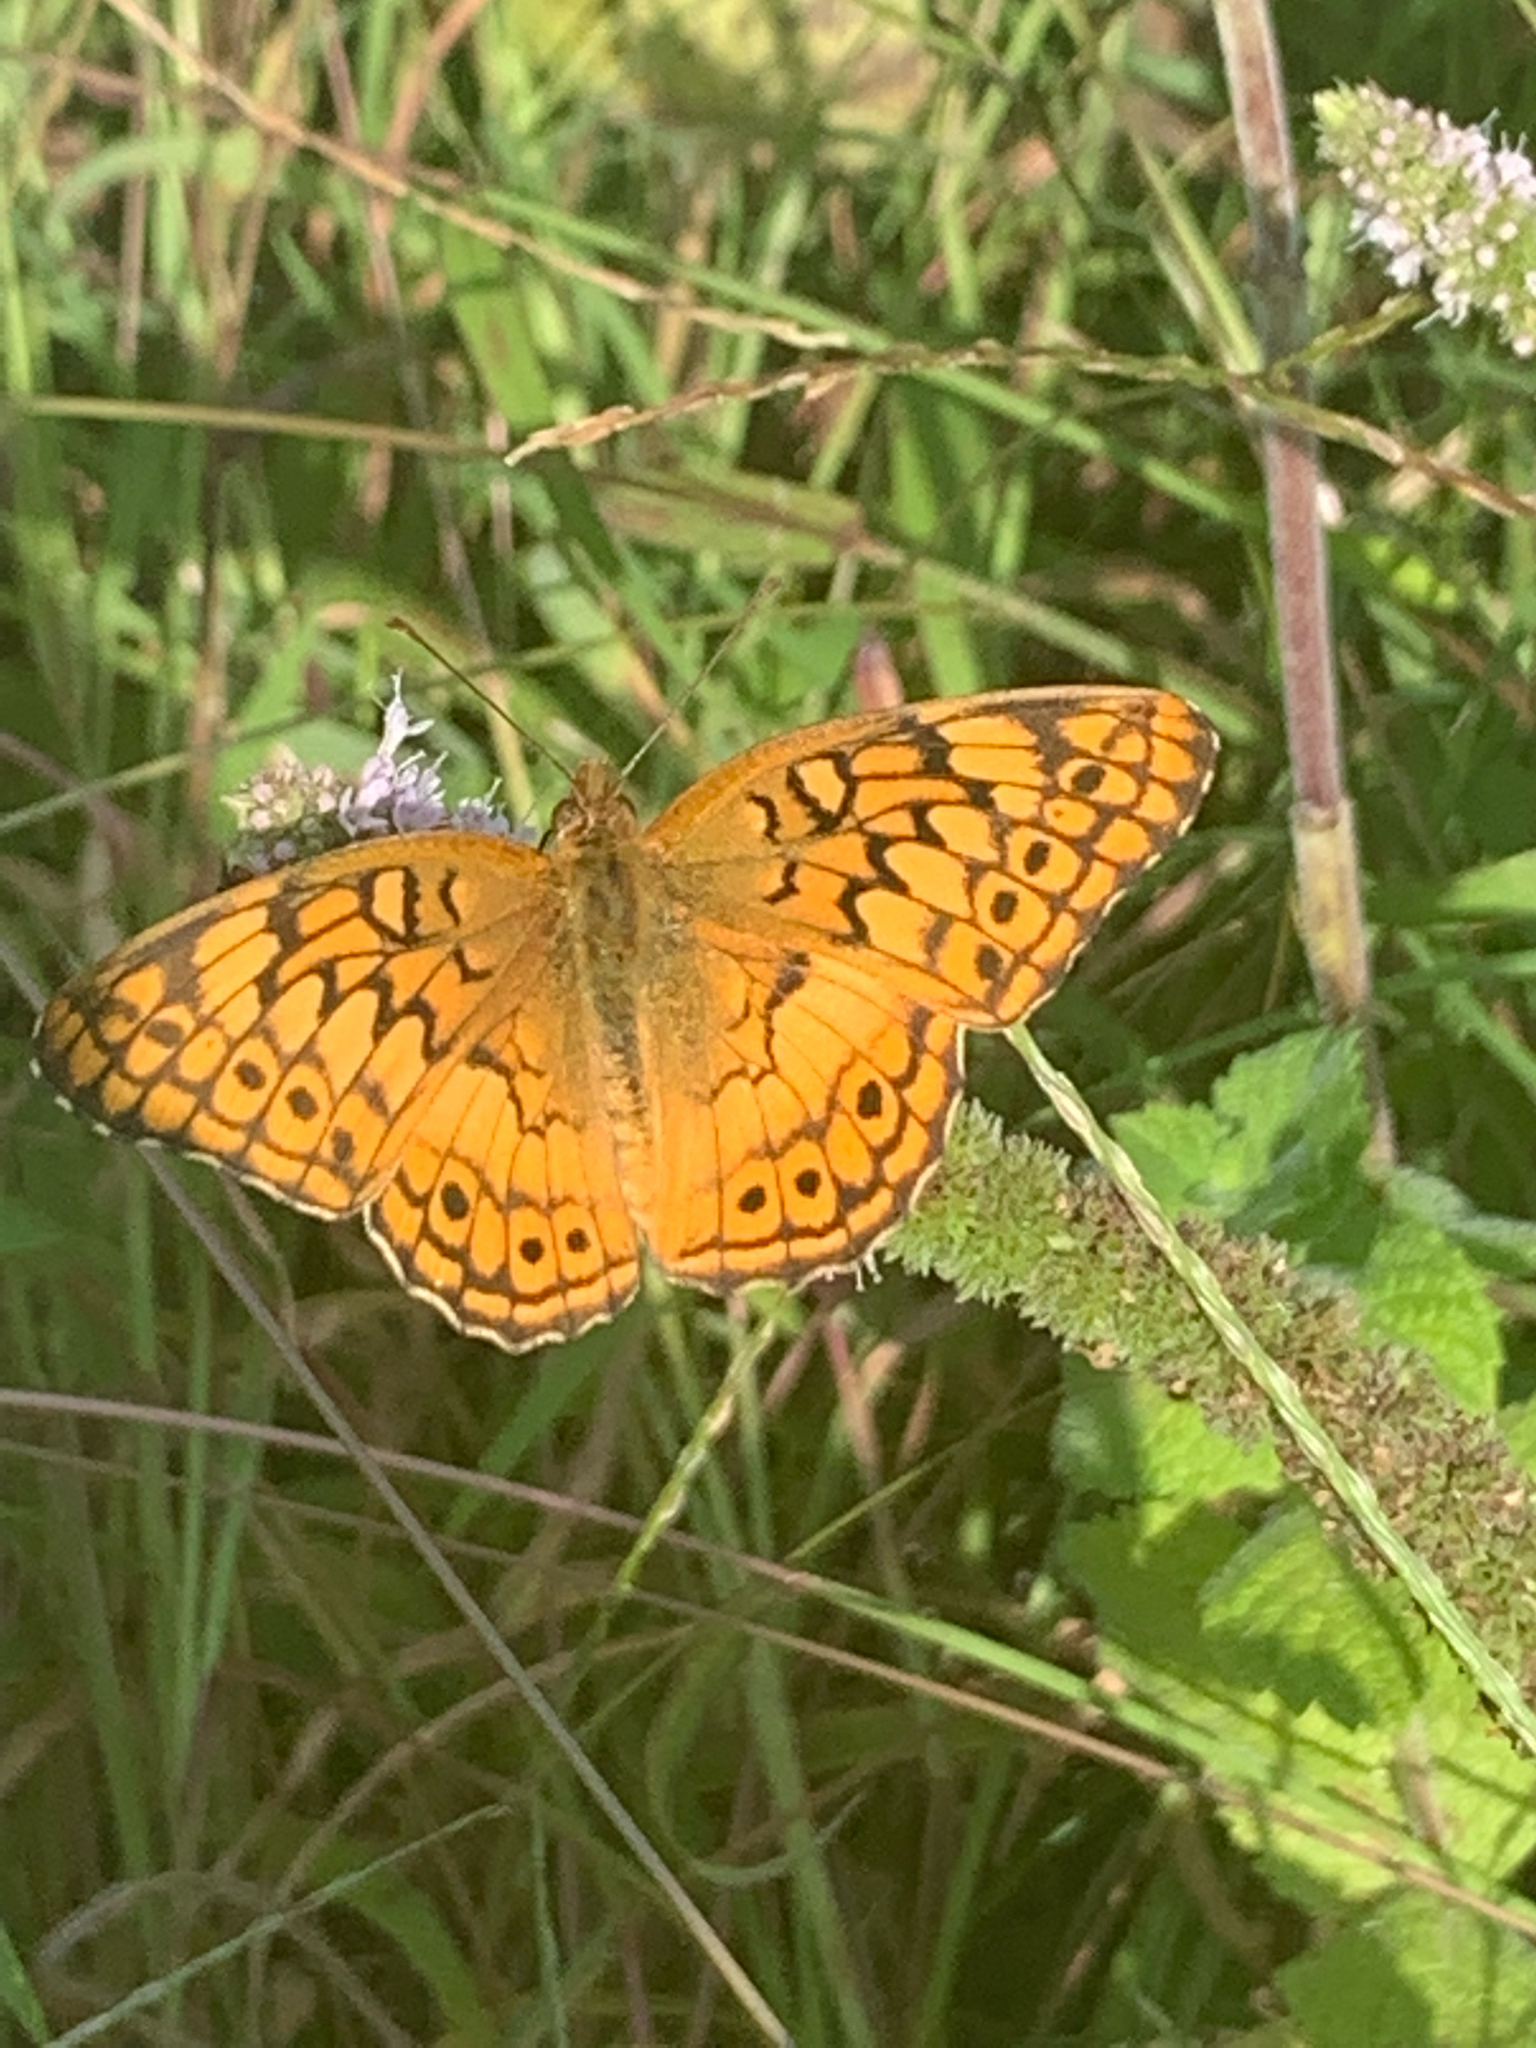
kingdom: Animalia
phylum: Arthropoda
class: Insecta
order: Lepidoptera
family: Nymphalidae
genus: Euptoieta
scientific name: Euptoieta claudia
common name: Variegated fritillary
